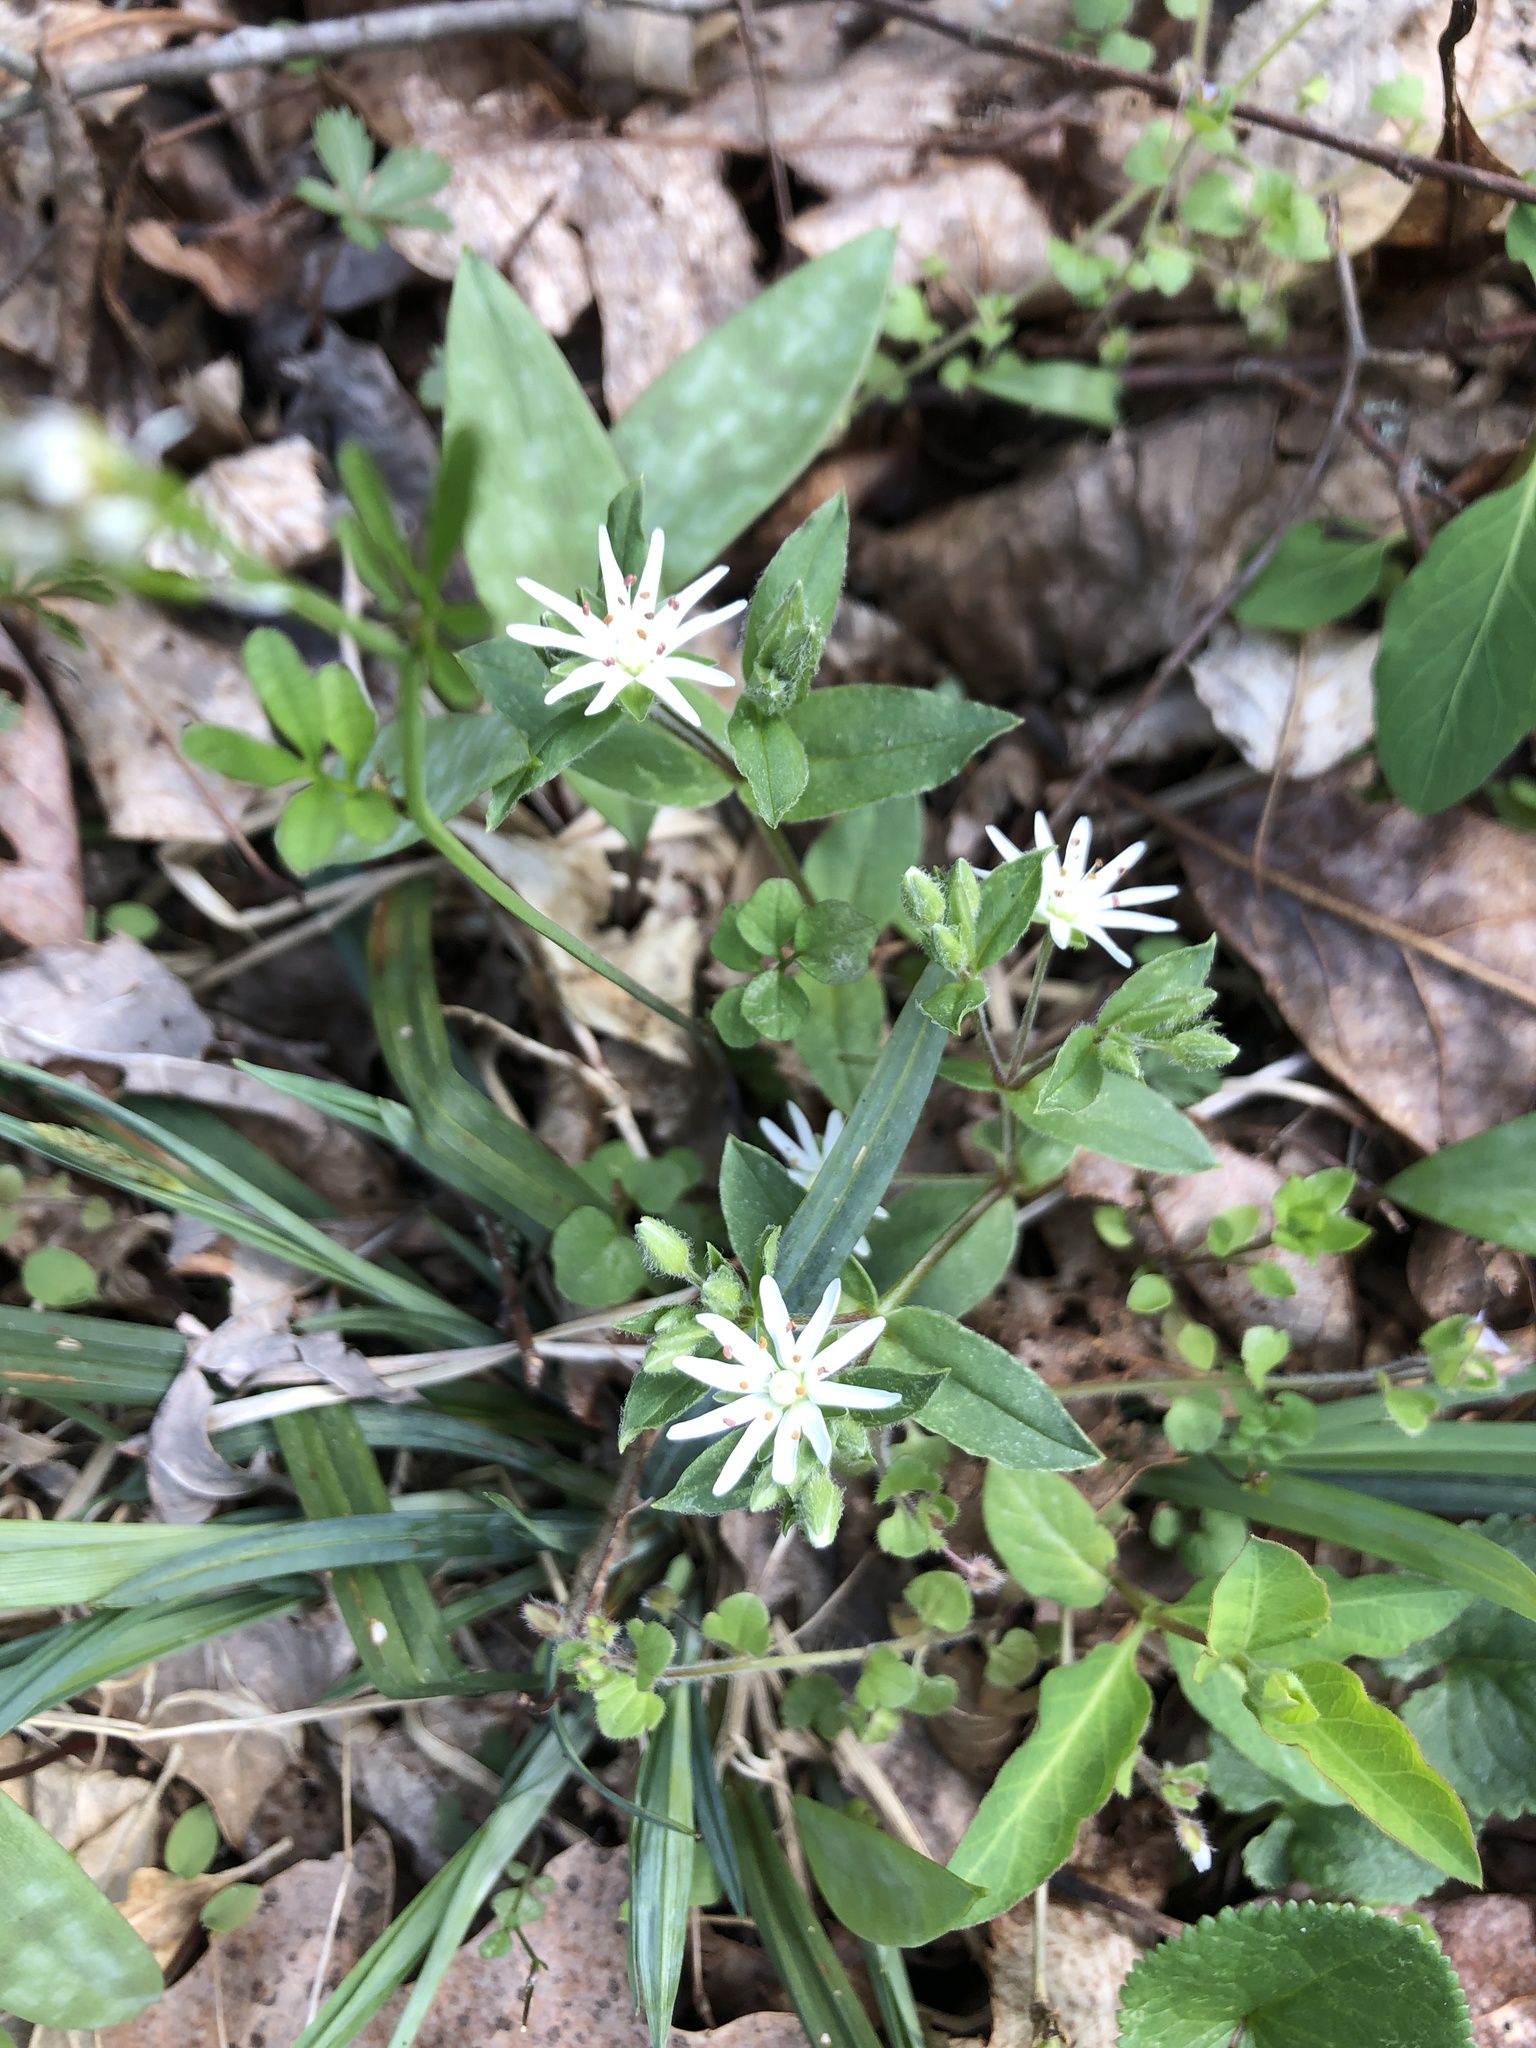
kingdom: Plantae
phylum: Tracheophyta
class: Magnoliopsida
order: Caryophyllales
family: Caryophyllaceae
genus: Stellaria
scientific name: Stellaria pubera
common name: Star chickweed
